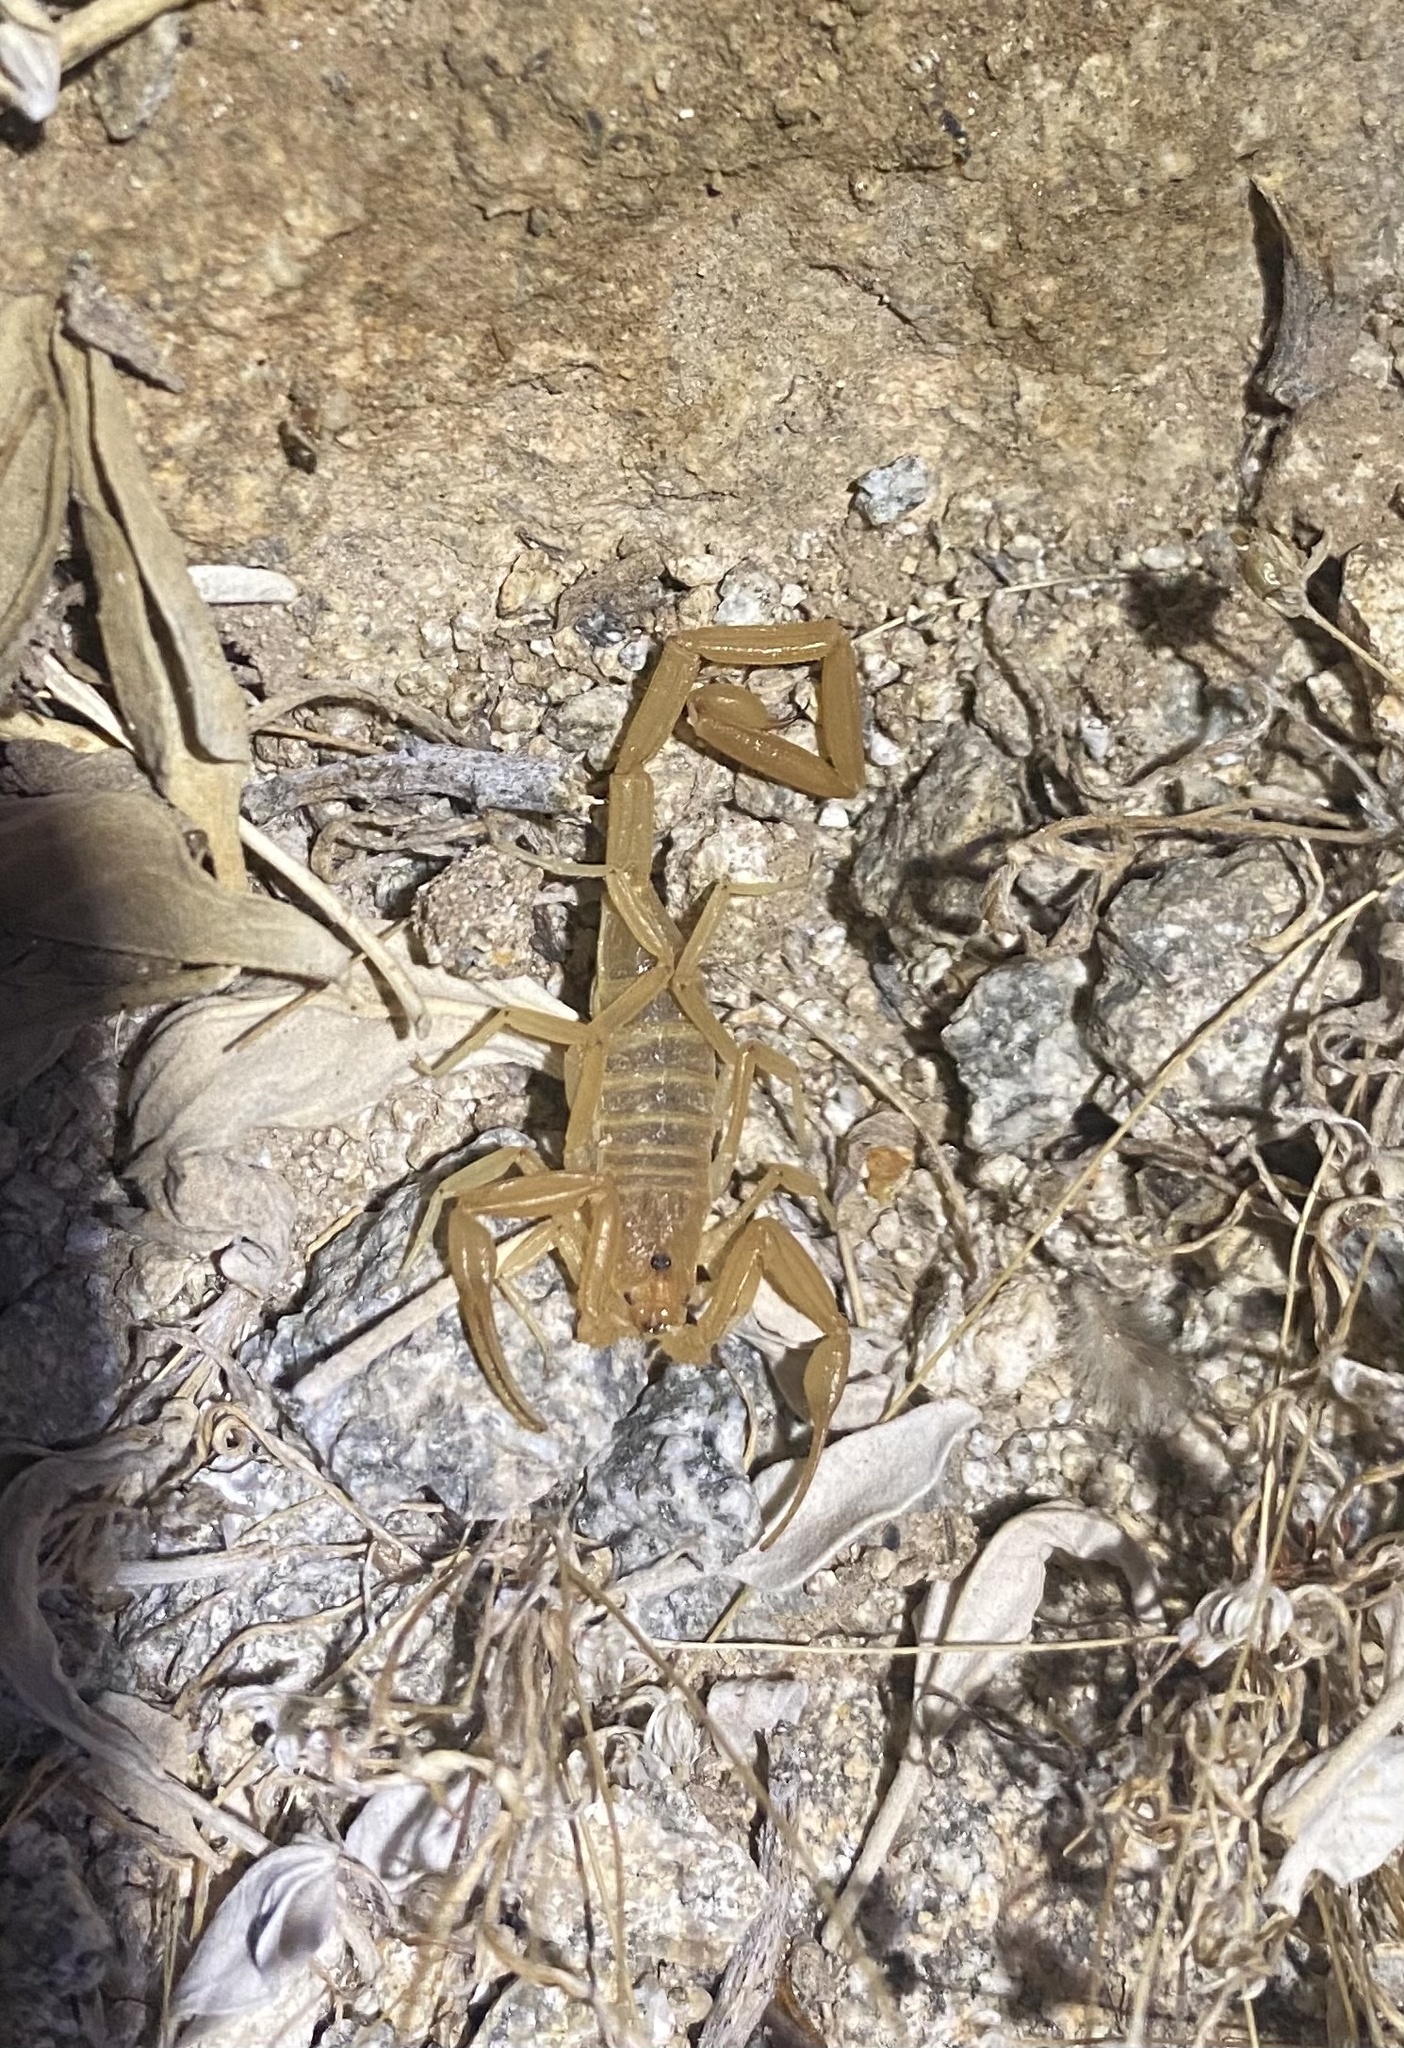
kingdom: Animalia
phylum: Arthropoda
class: Arachnida
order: Scorpiones
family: Buthidae
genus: Centruroides
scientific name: Centruroides sculpturatus
